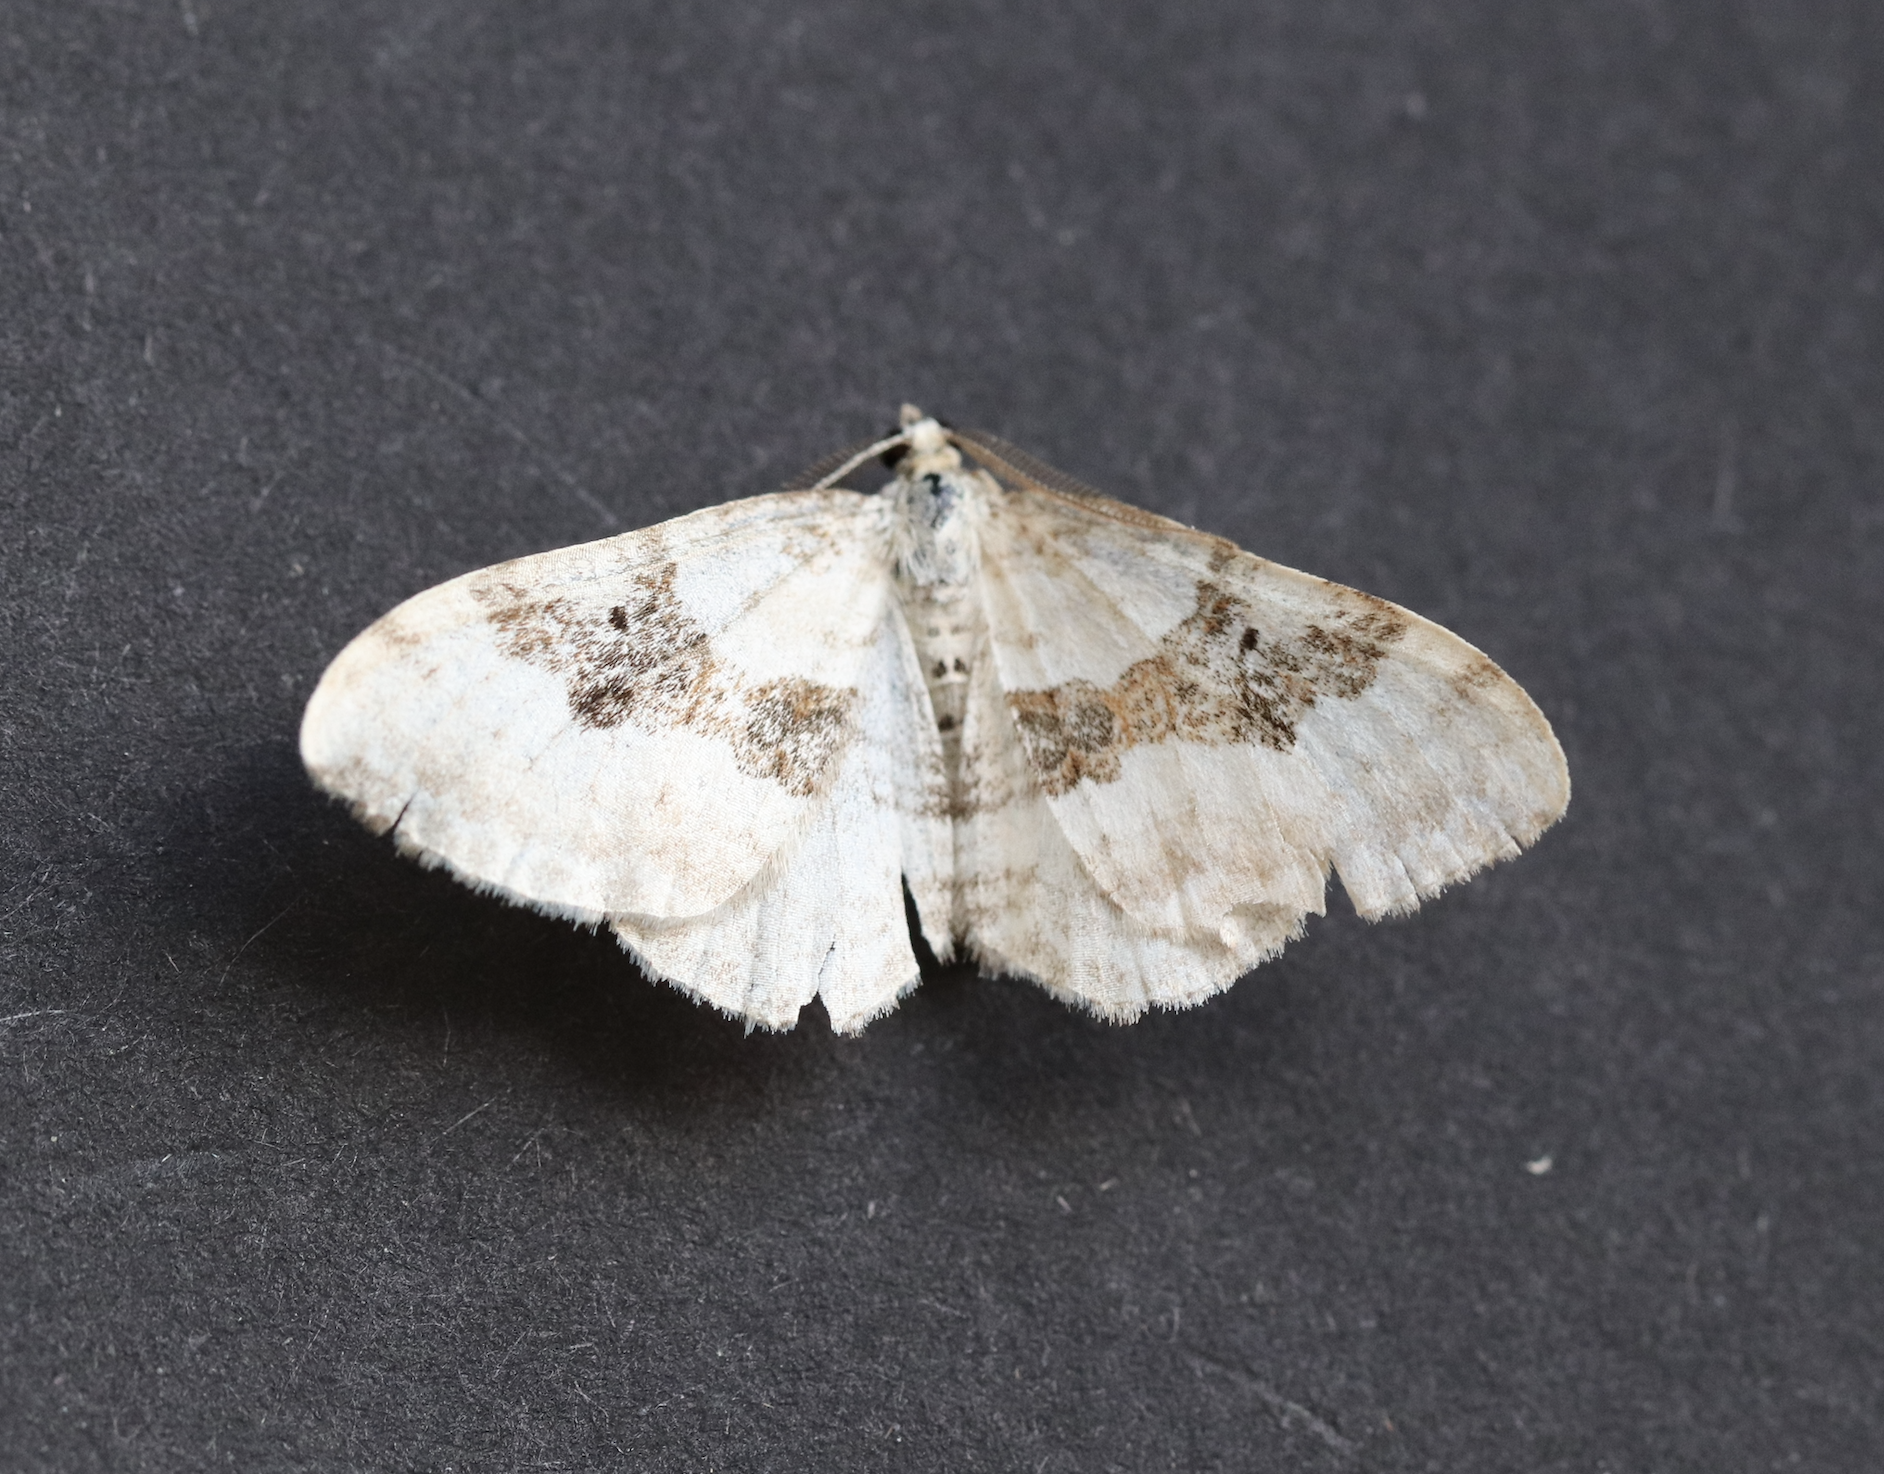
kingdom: Animalia
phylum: Arthropoda
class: Insecta
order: Lepidoptera
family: Geometridae
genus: Xanthorhoe
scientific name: Xanthorhoe montanata
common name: Silver-ground carpet
